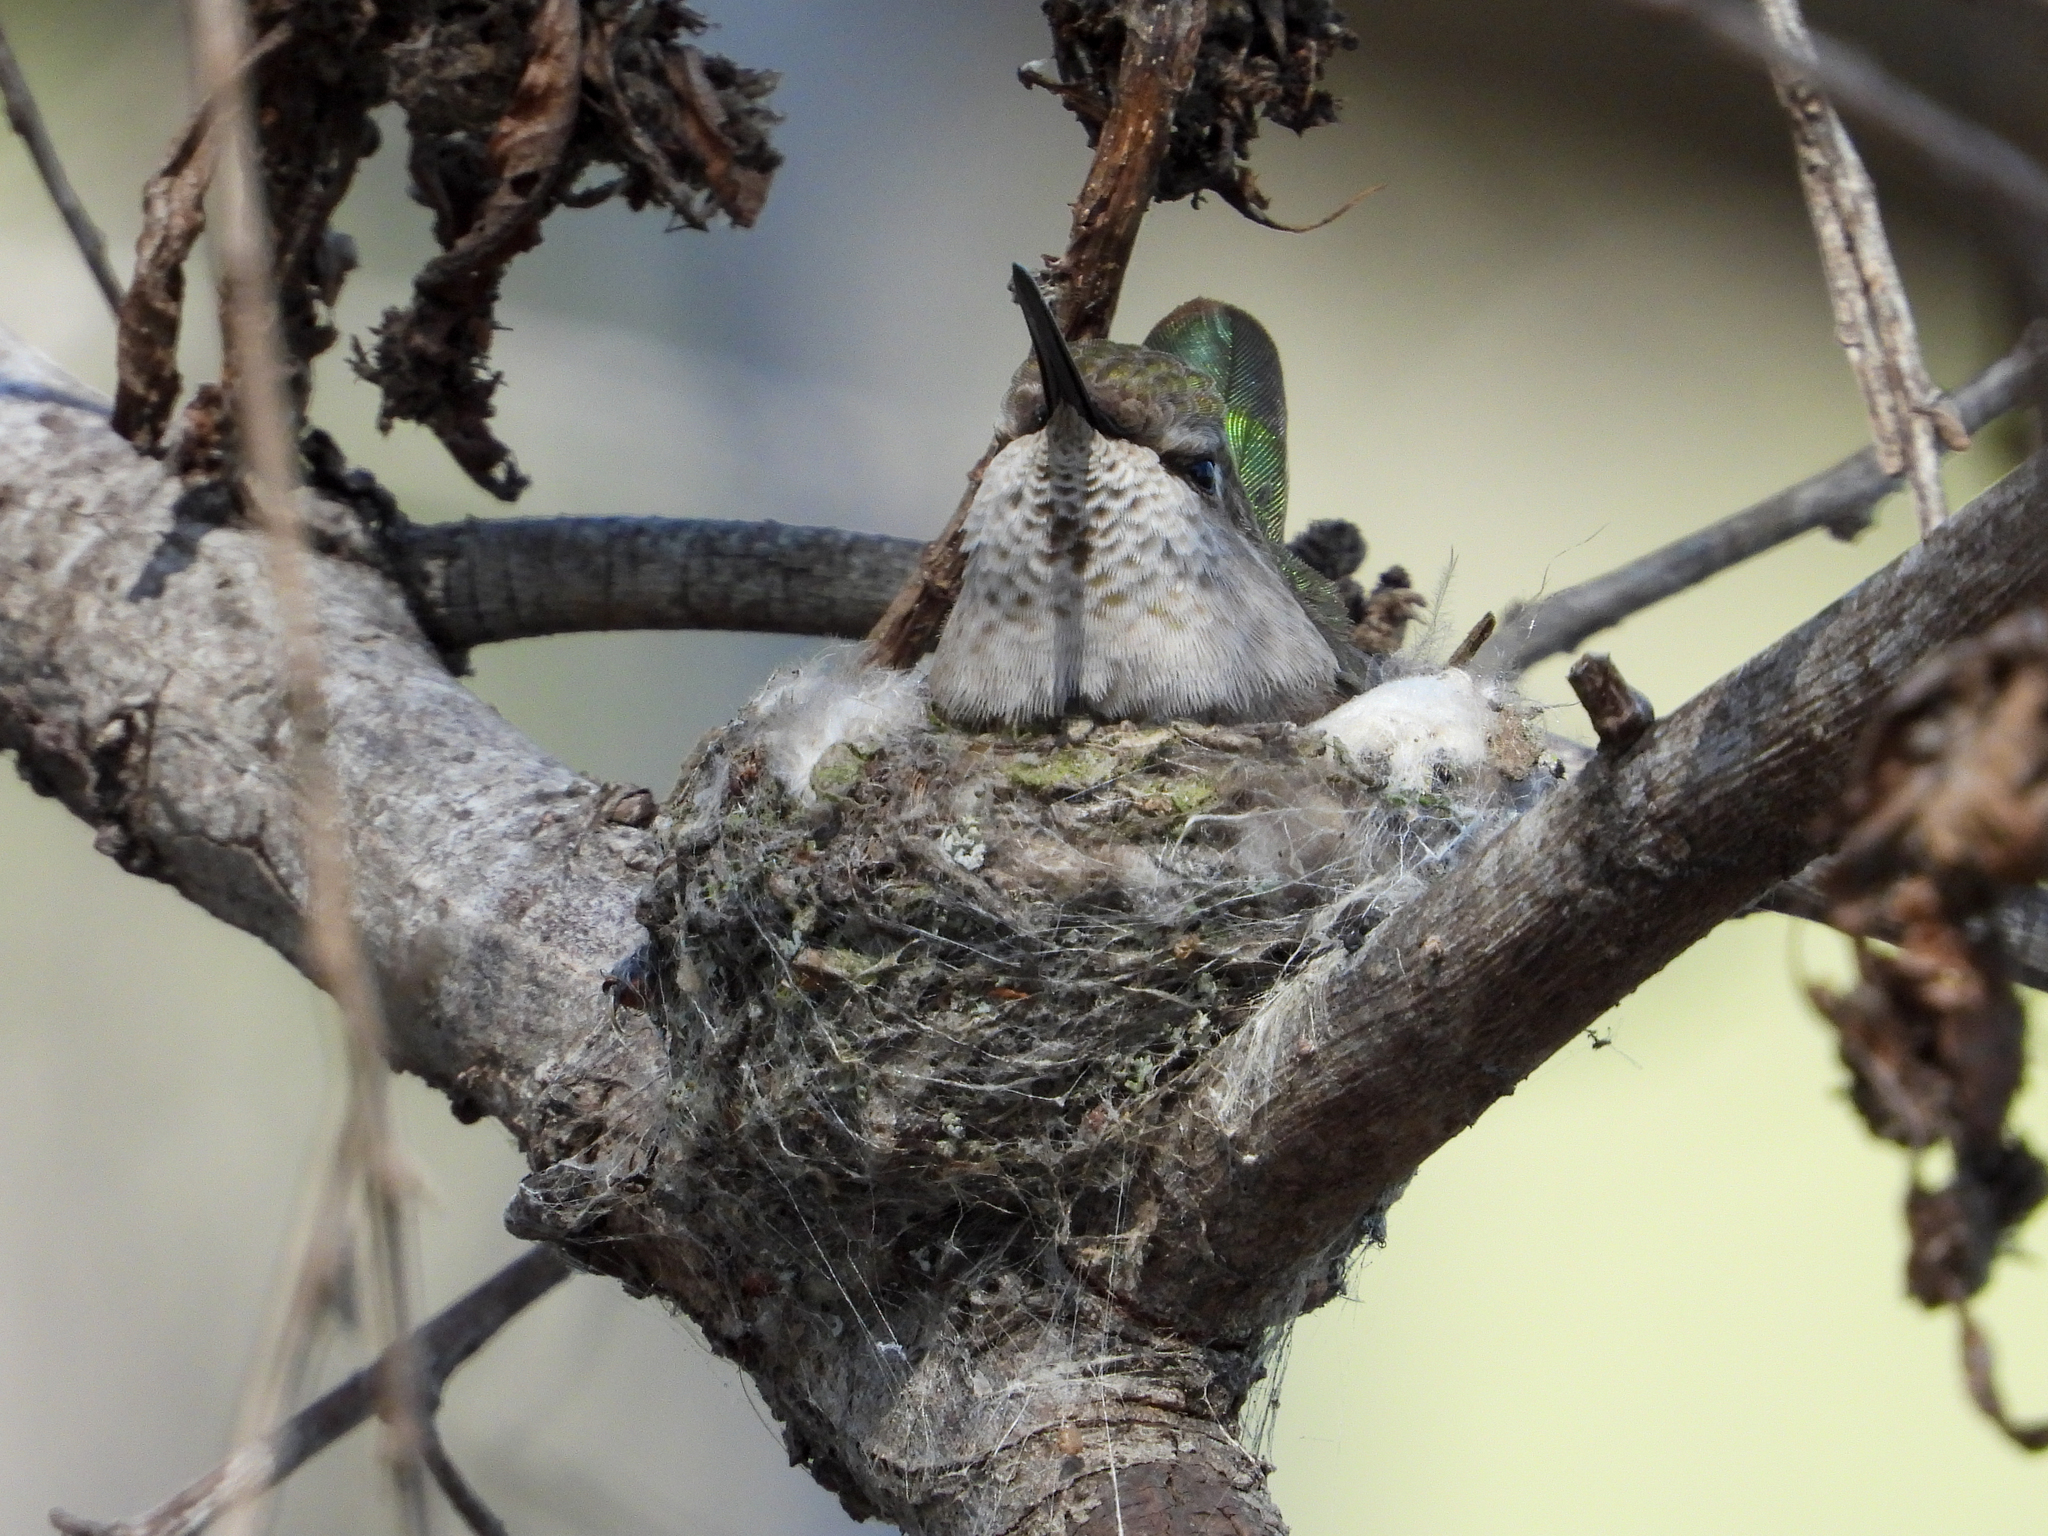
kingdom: Animalia
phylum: Chordata
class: Aves
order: Apodiformes
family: Trochilidae
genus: Calypte
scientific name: Calypte anna
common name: Anna's hummingbird
